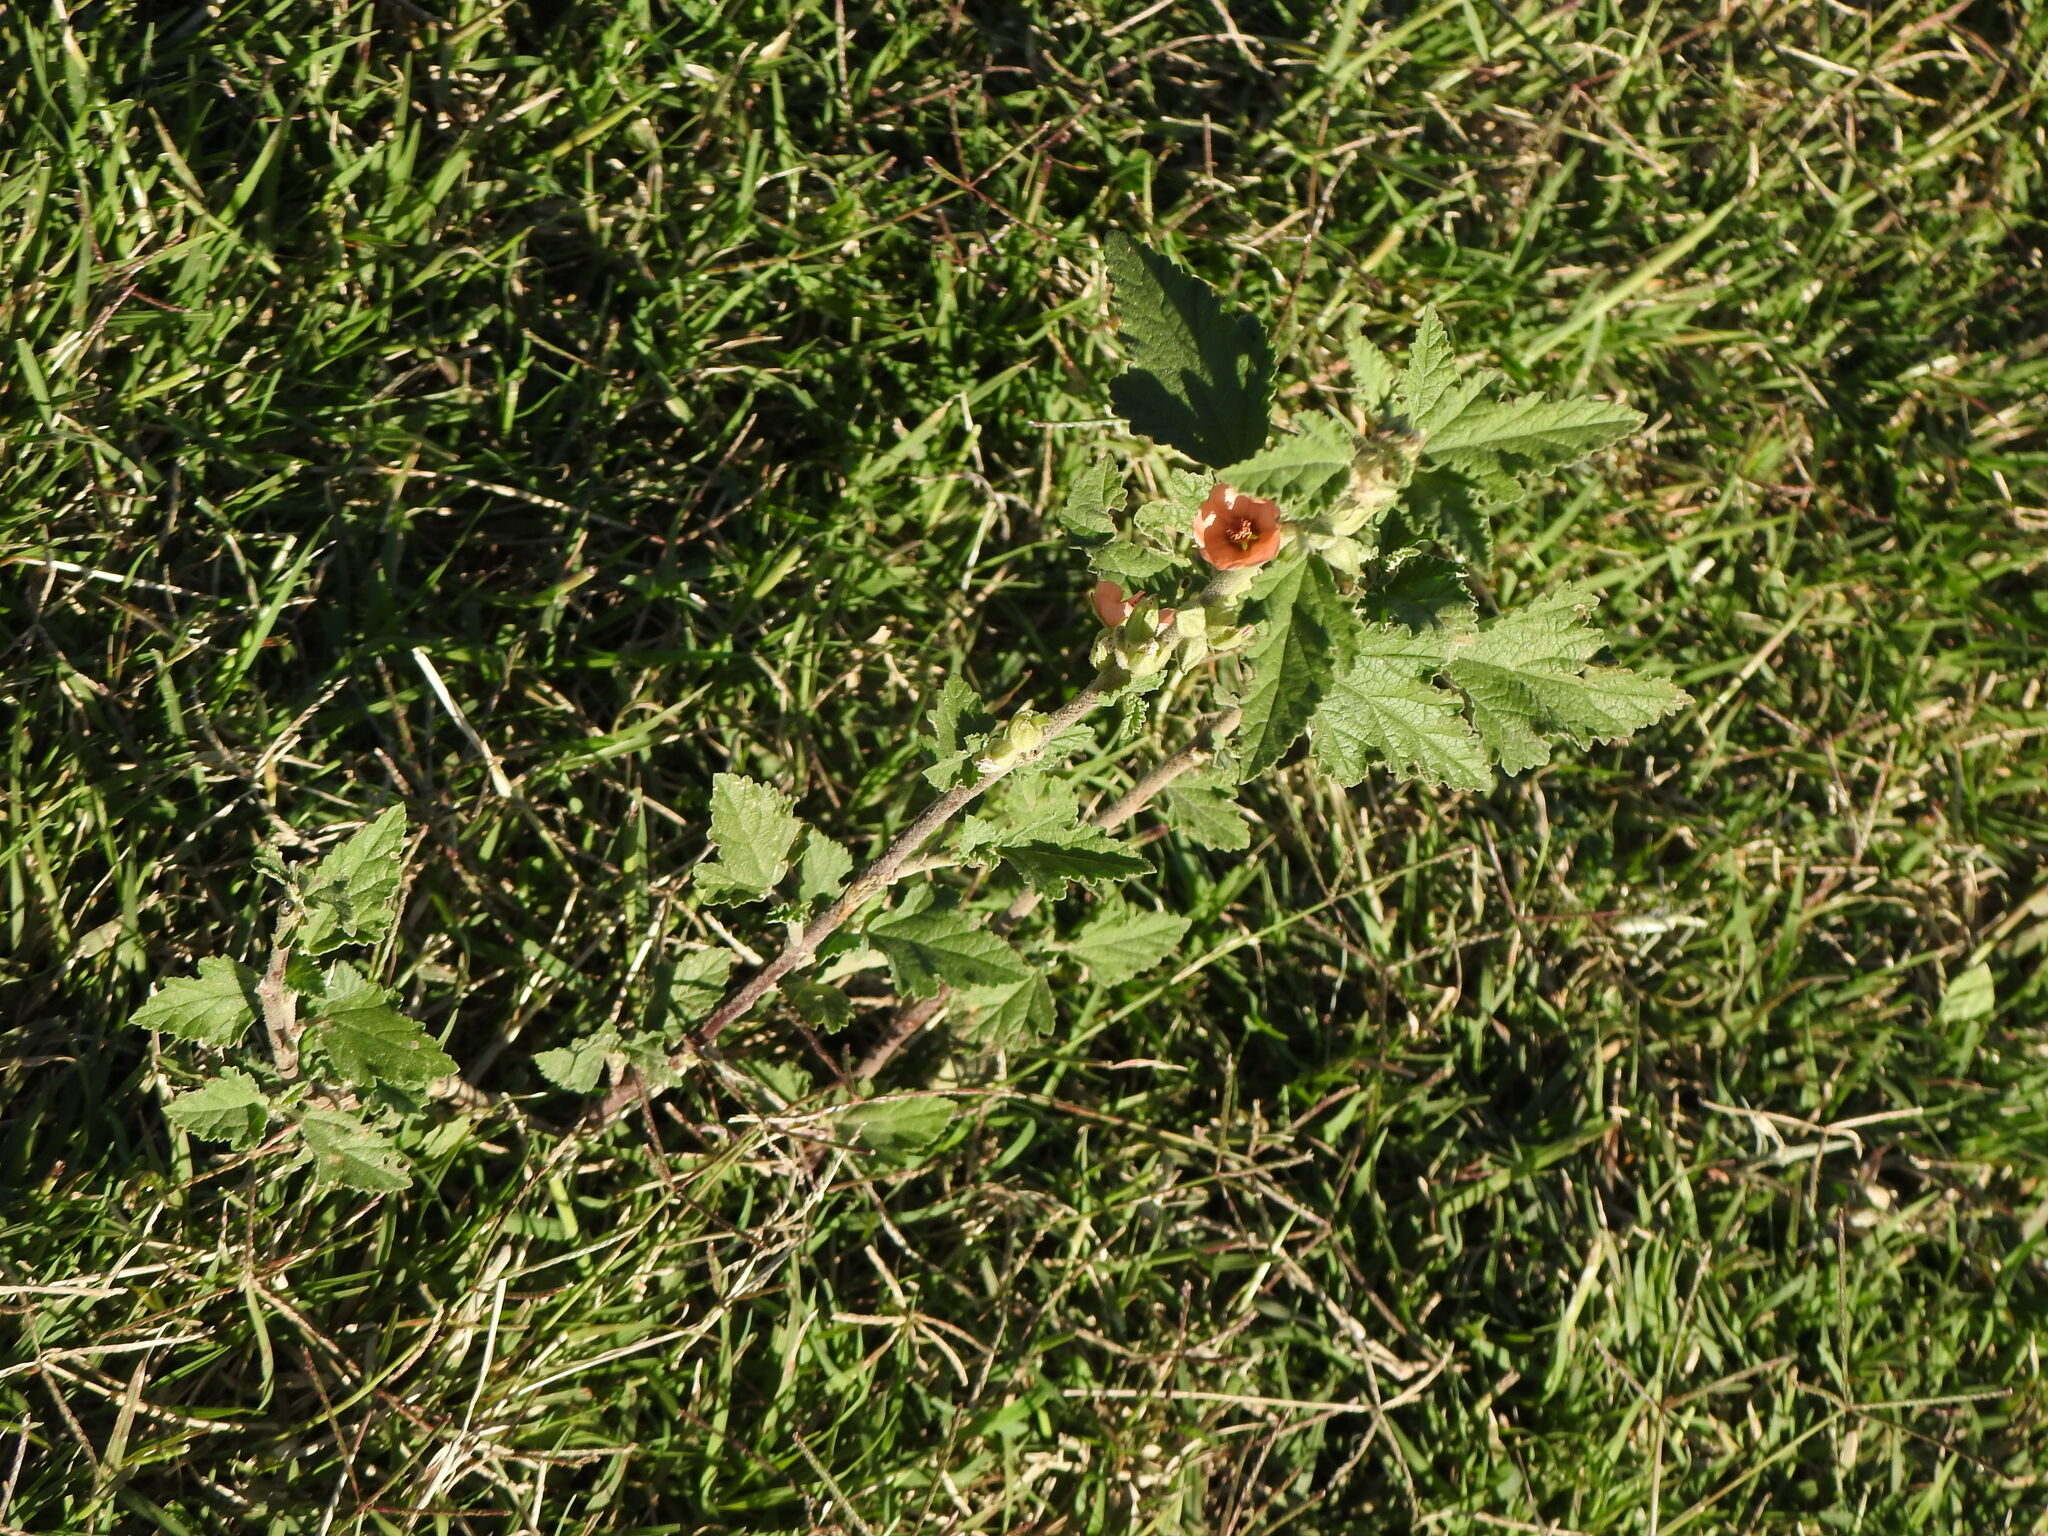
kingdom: Plantae
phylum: Tracheophyta
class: Magnoliopsida
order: Malvales
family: Malvaceae
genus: Sphaeralcea
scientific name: Sphaeralcea bonariensis
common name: Latin globemallow
